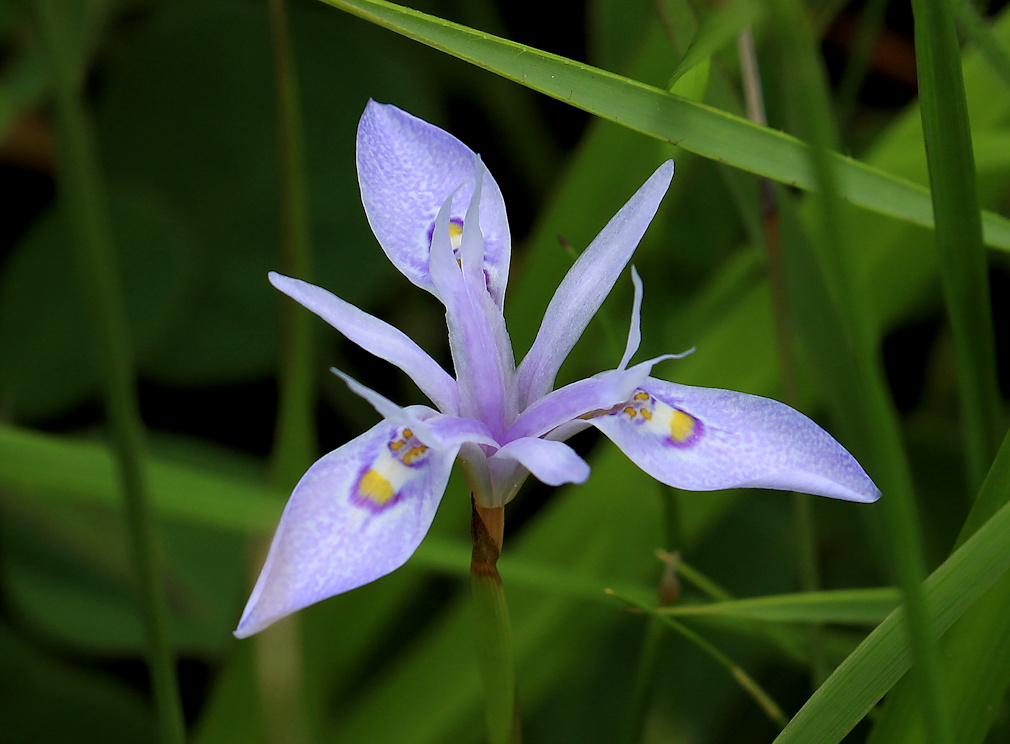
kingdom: Plantae
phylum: Tracheophyta
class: Liliopsida
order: Asparagales
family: Iridaceae
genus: Moraea
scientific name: Moraea stricta
